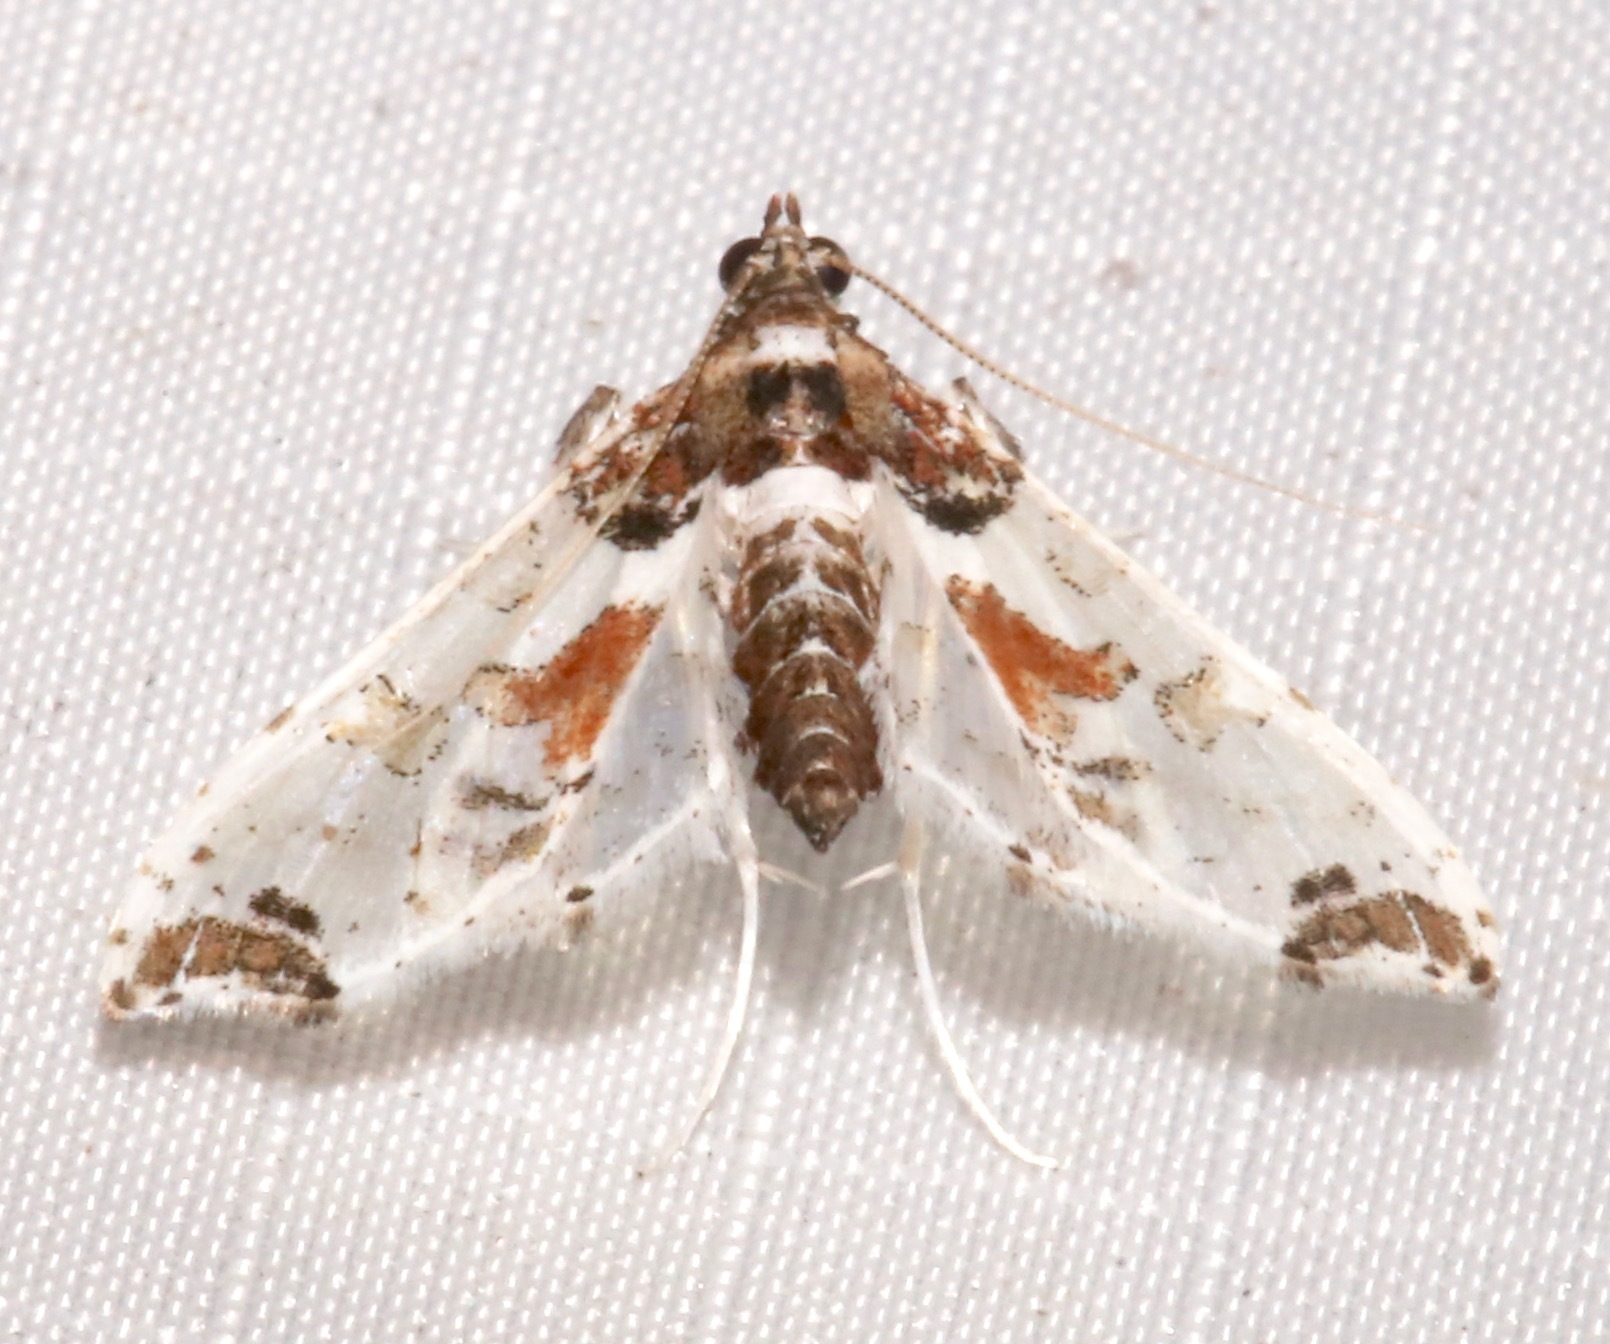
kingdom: Animalia
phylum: Arthropoda
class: Insecta
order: Lepidoptera
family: Crambidae
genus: Neoleucinodes
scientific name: Neoleucinodes elegantalis
